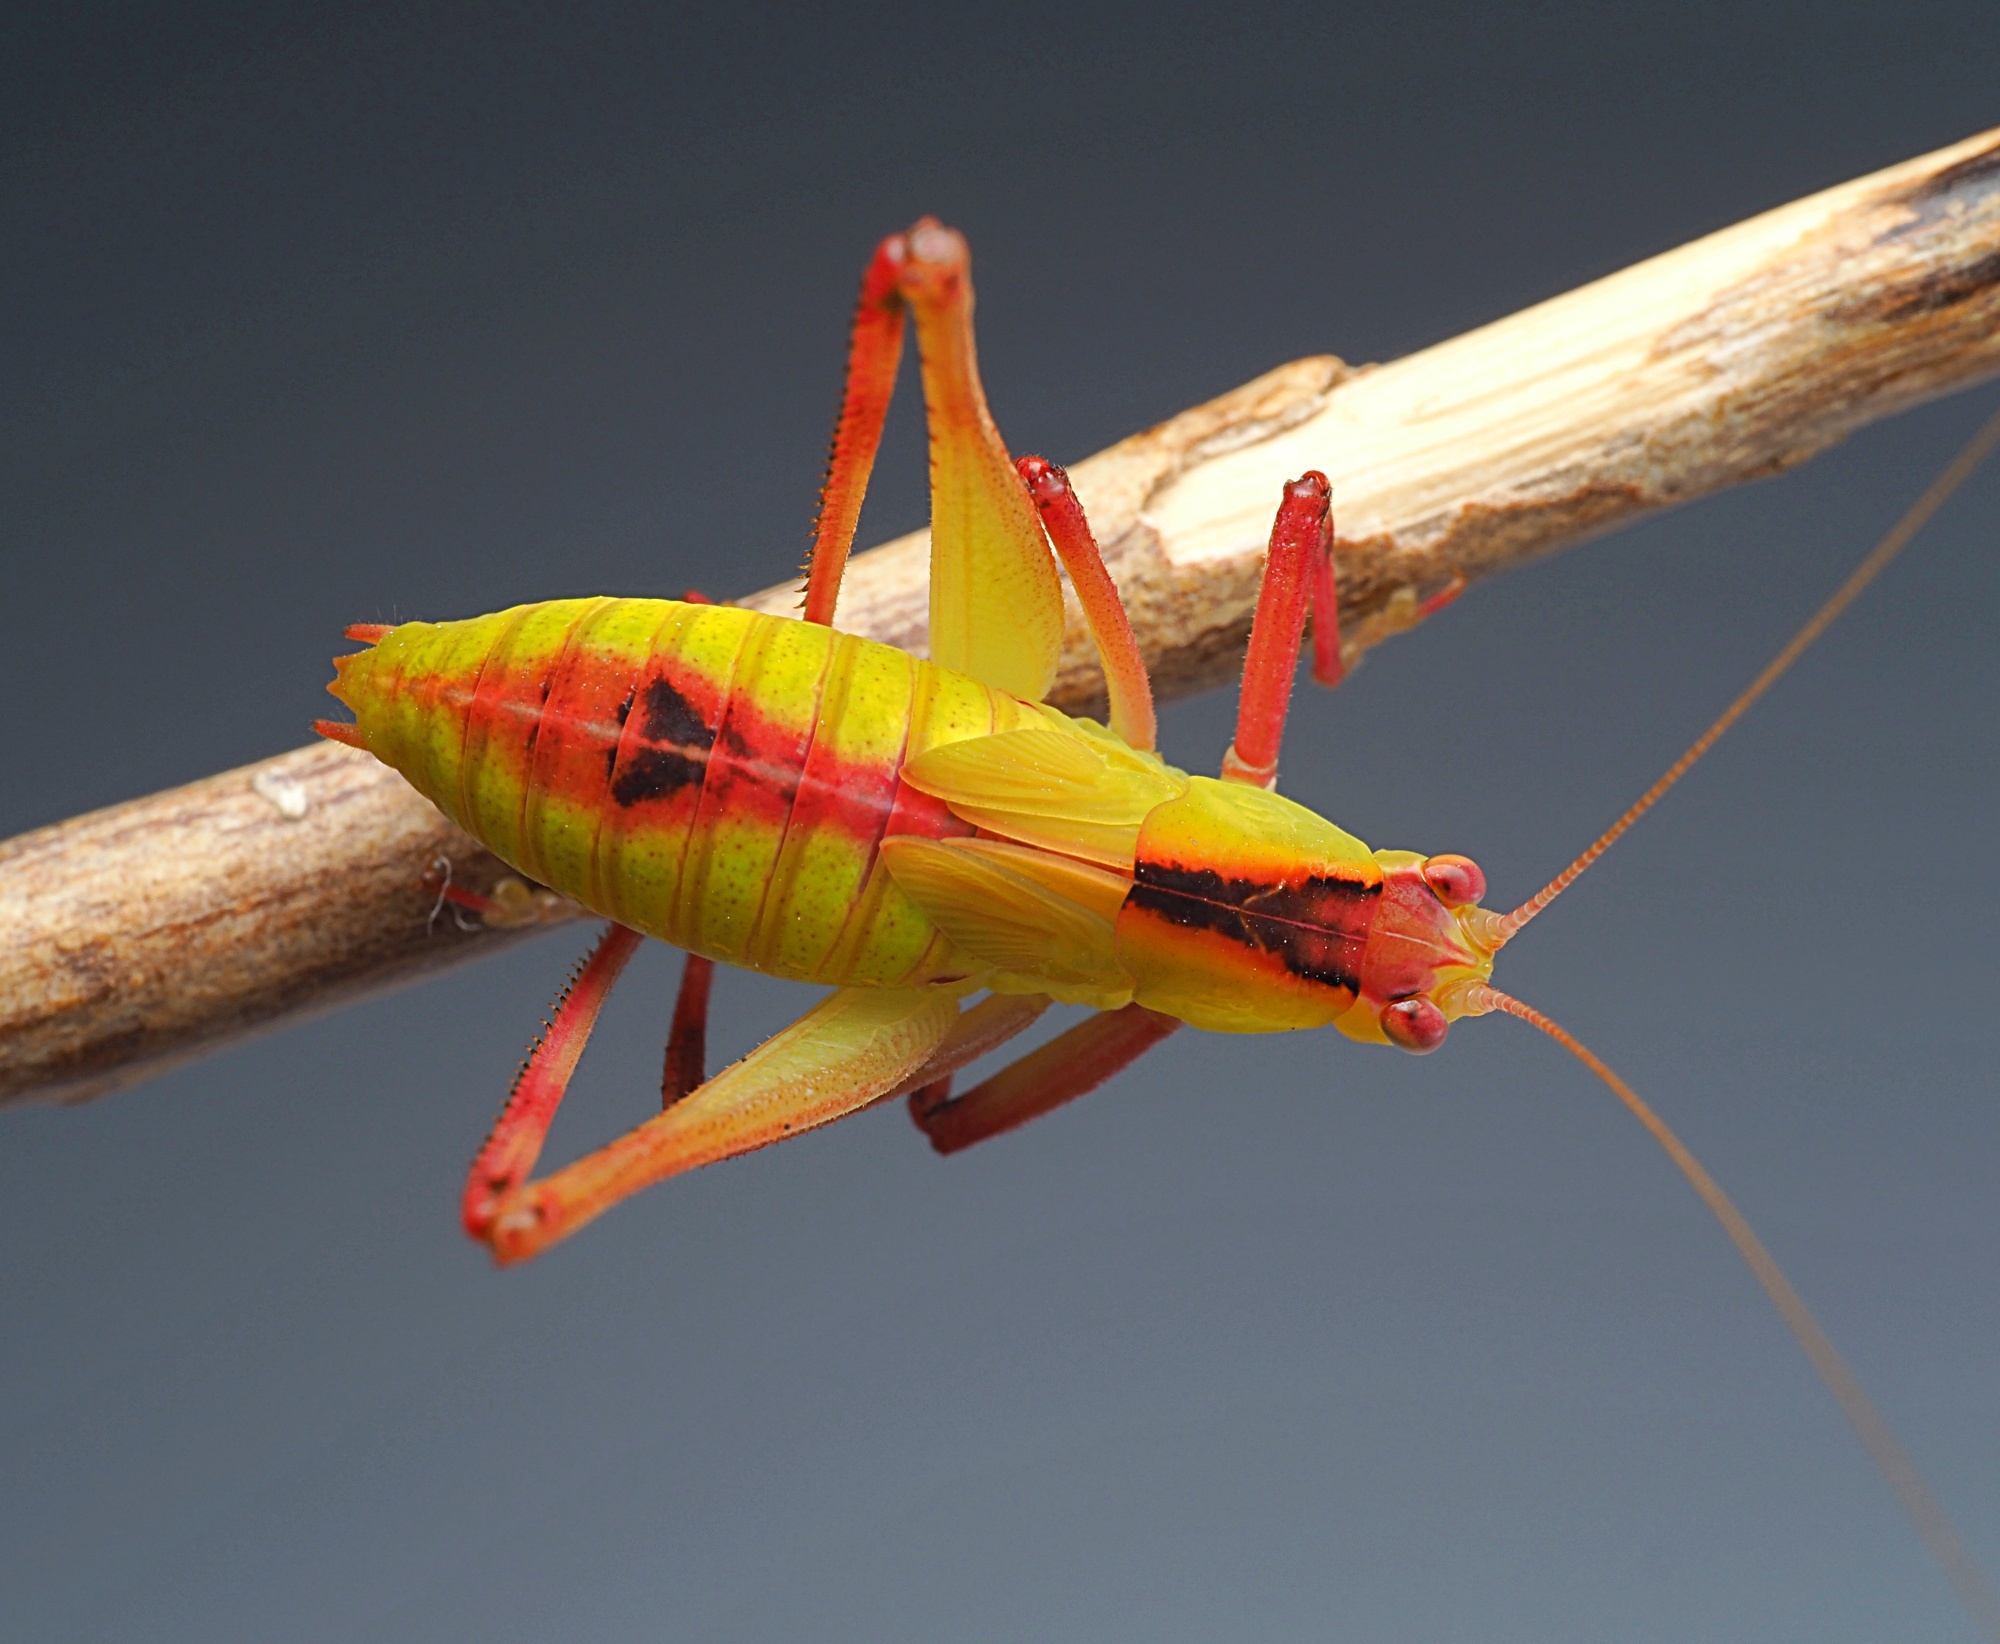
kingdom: Animalia
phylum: Arthropoda
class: Insecta
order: Orthoptera
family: Tettigoniidae
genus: Caedicia
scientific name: Caedicia simplex
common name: Common garden katydid
